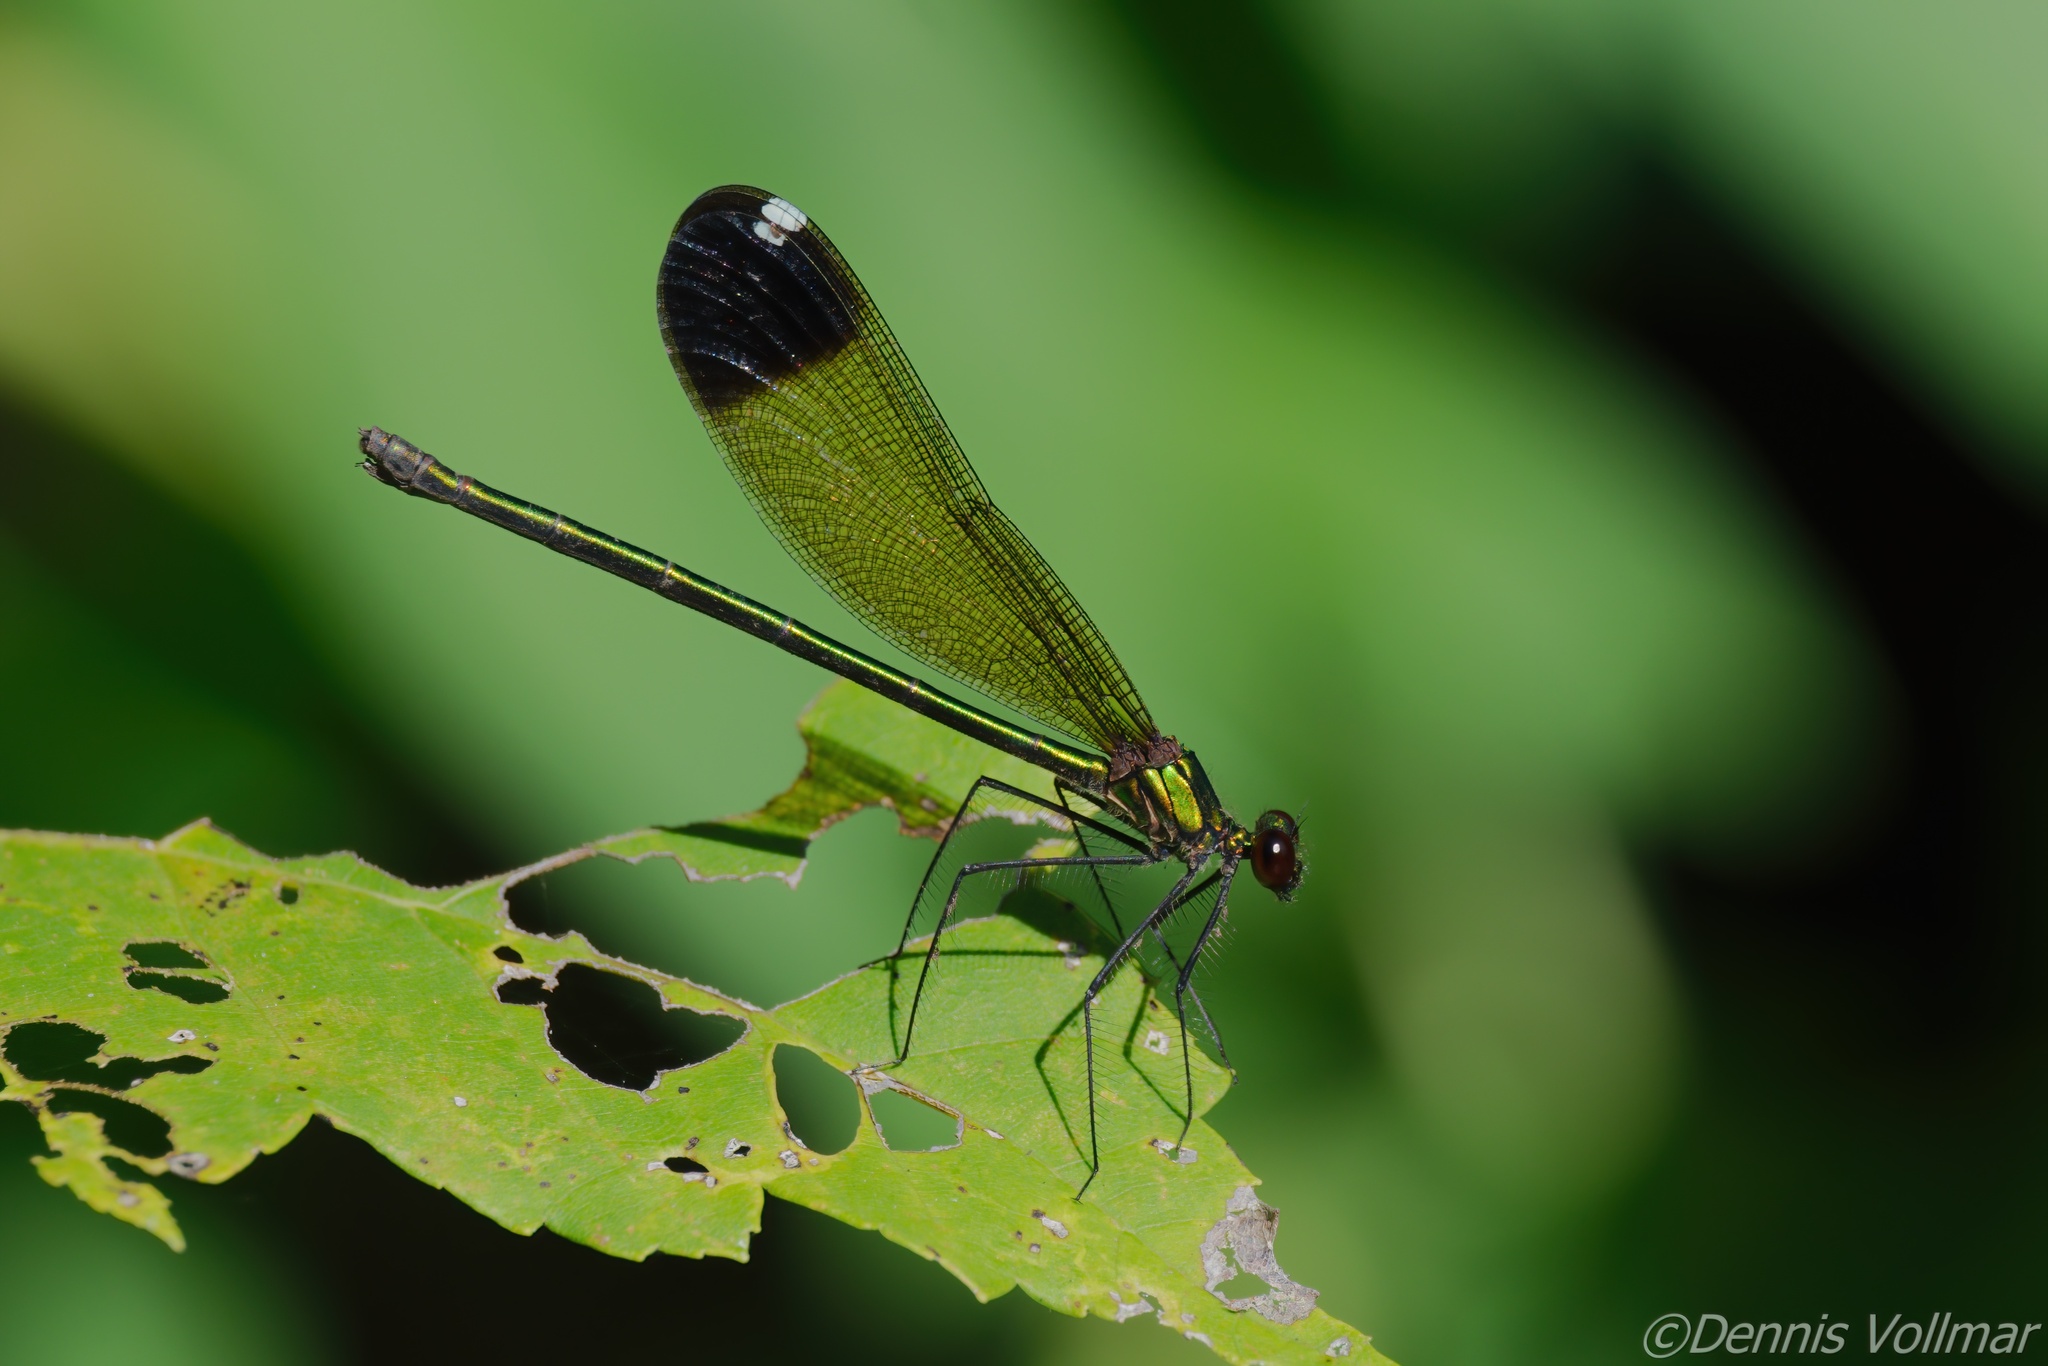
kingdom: Animalia
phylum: Arthropoda
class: Insecta
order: Odonata
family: Calopterygidae
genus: Calopteryx
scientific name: Calopteryx dimidiata
